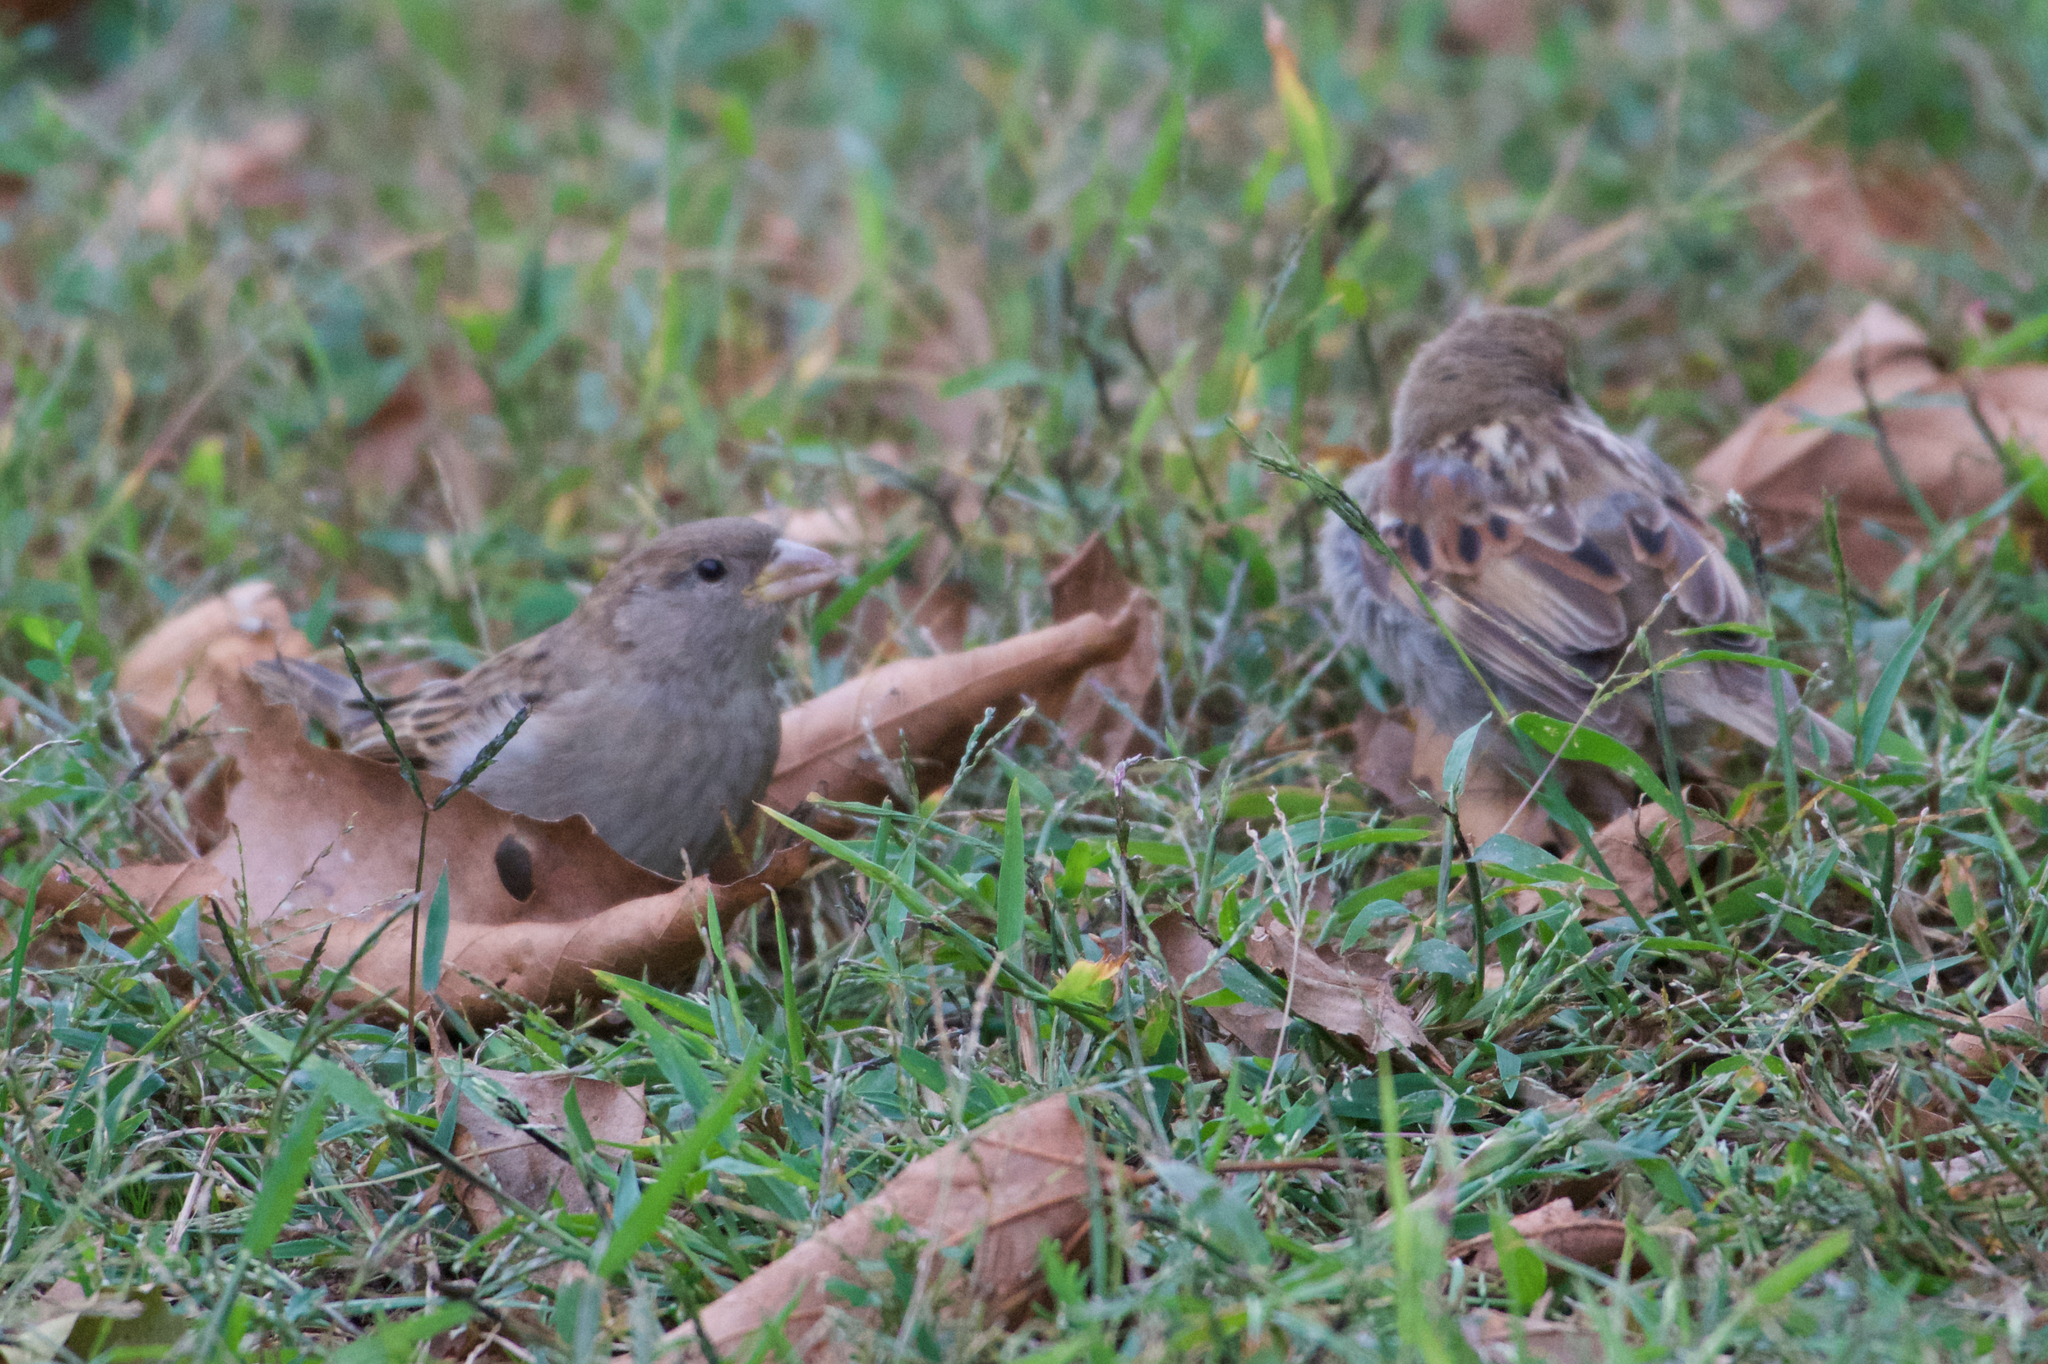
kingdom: Animalia
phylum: Chordata
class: Aves
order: Passeriformes
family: Passeridae
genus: Passer
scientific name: Passer domesticus
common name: House sparrow
